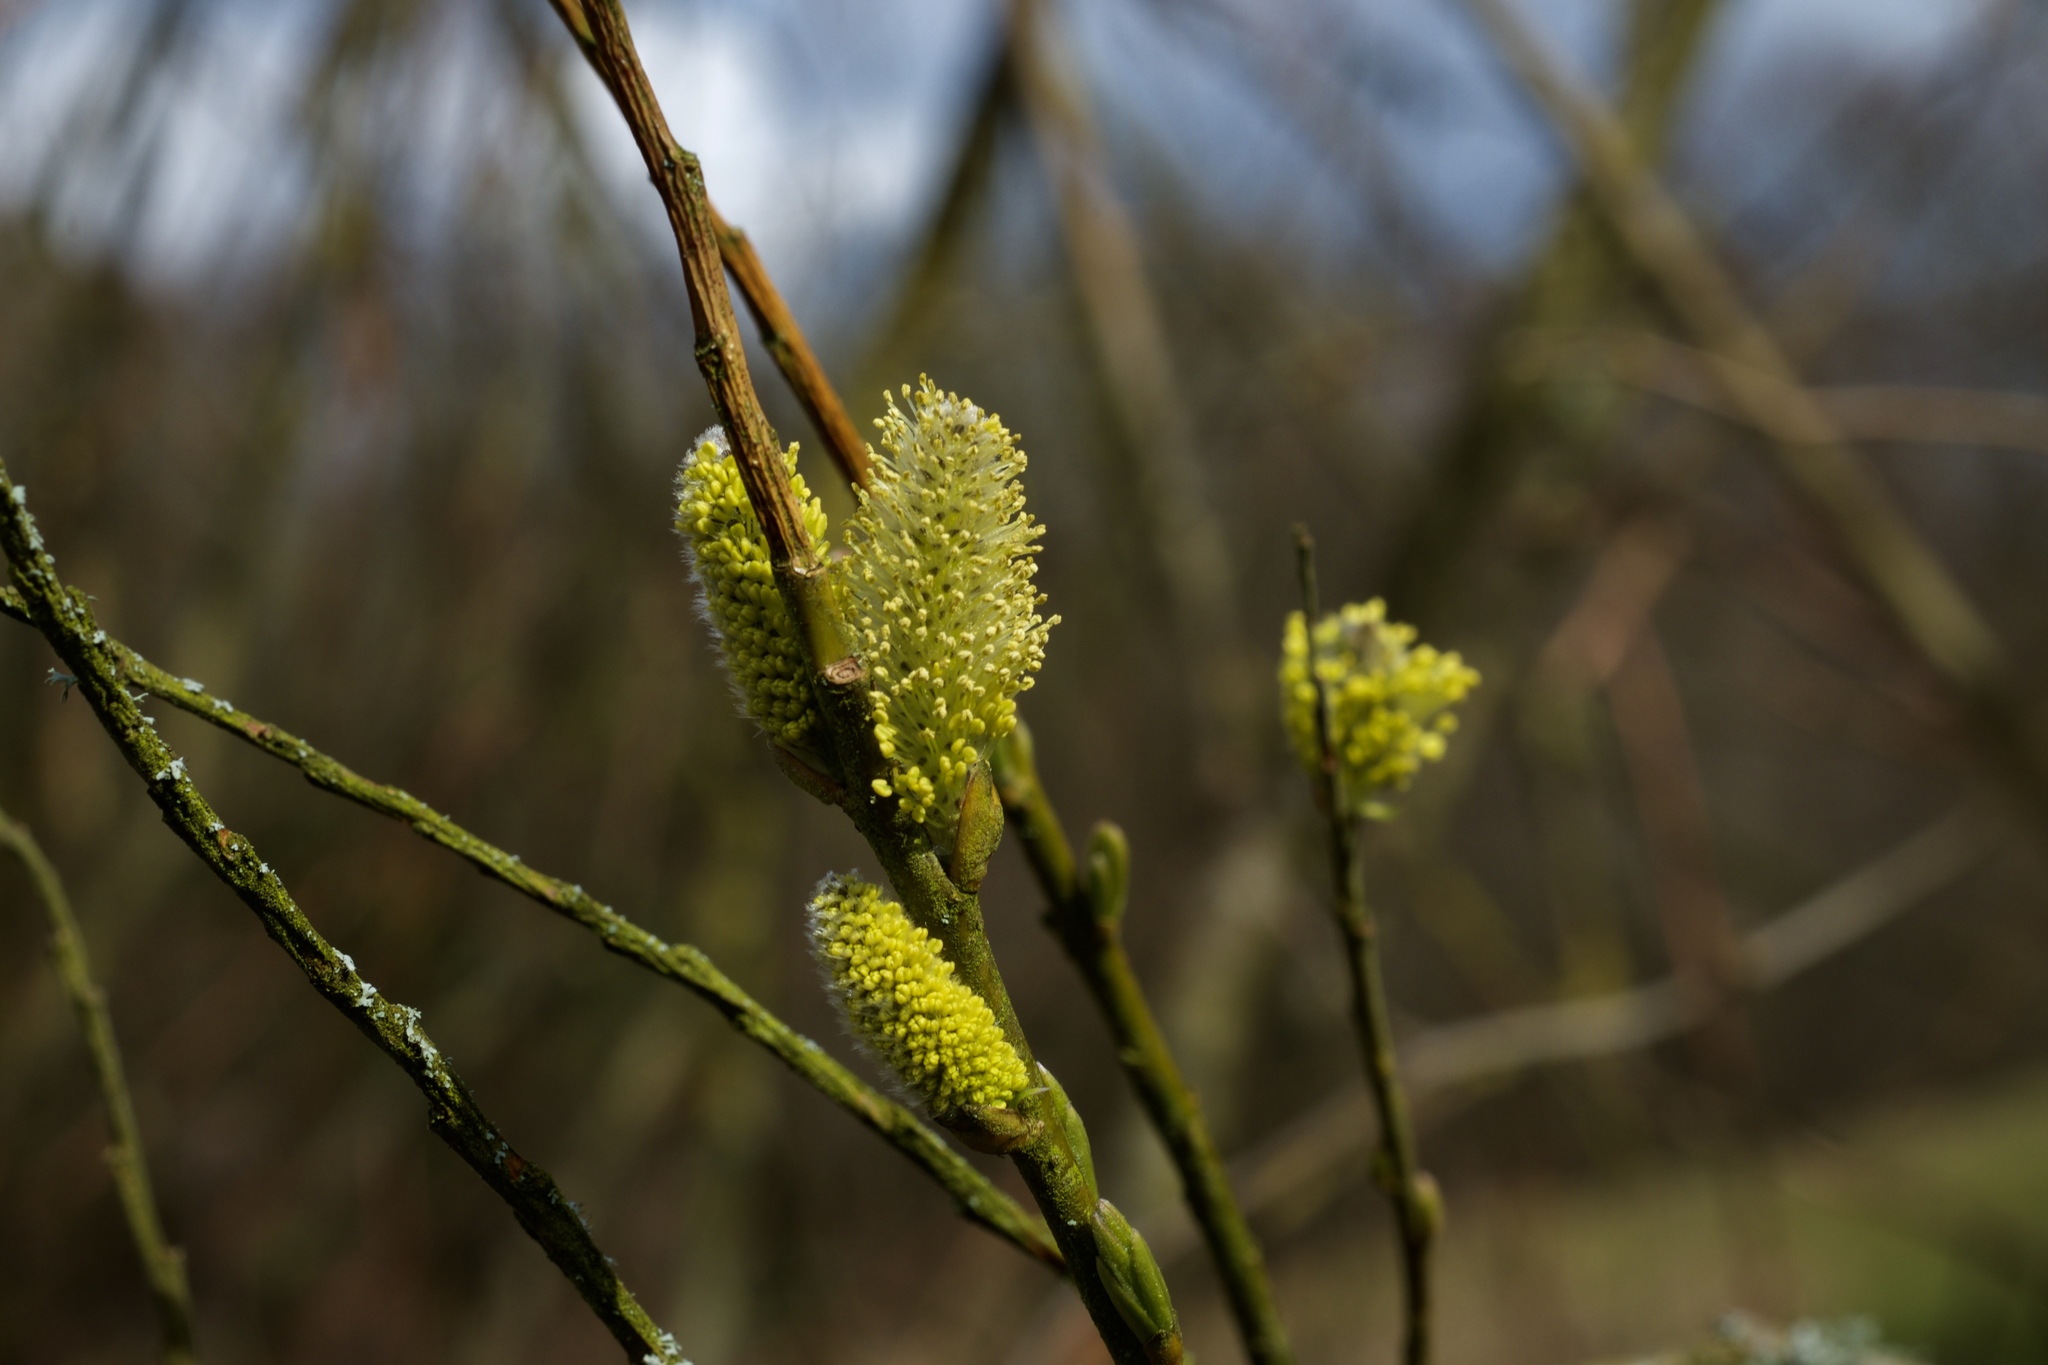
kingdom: Plantae
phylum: Tracheophyta
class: Magnoliopsida
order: Malpighiales
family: Salicaceae
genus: Salix
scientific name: Salix
